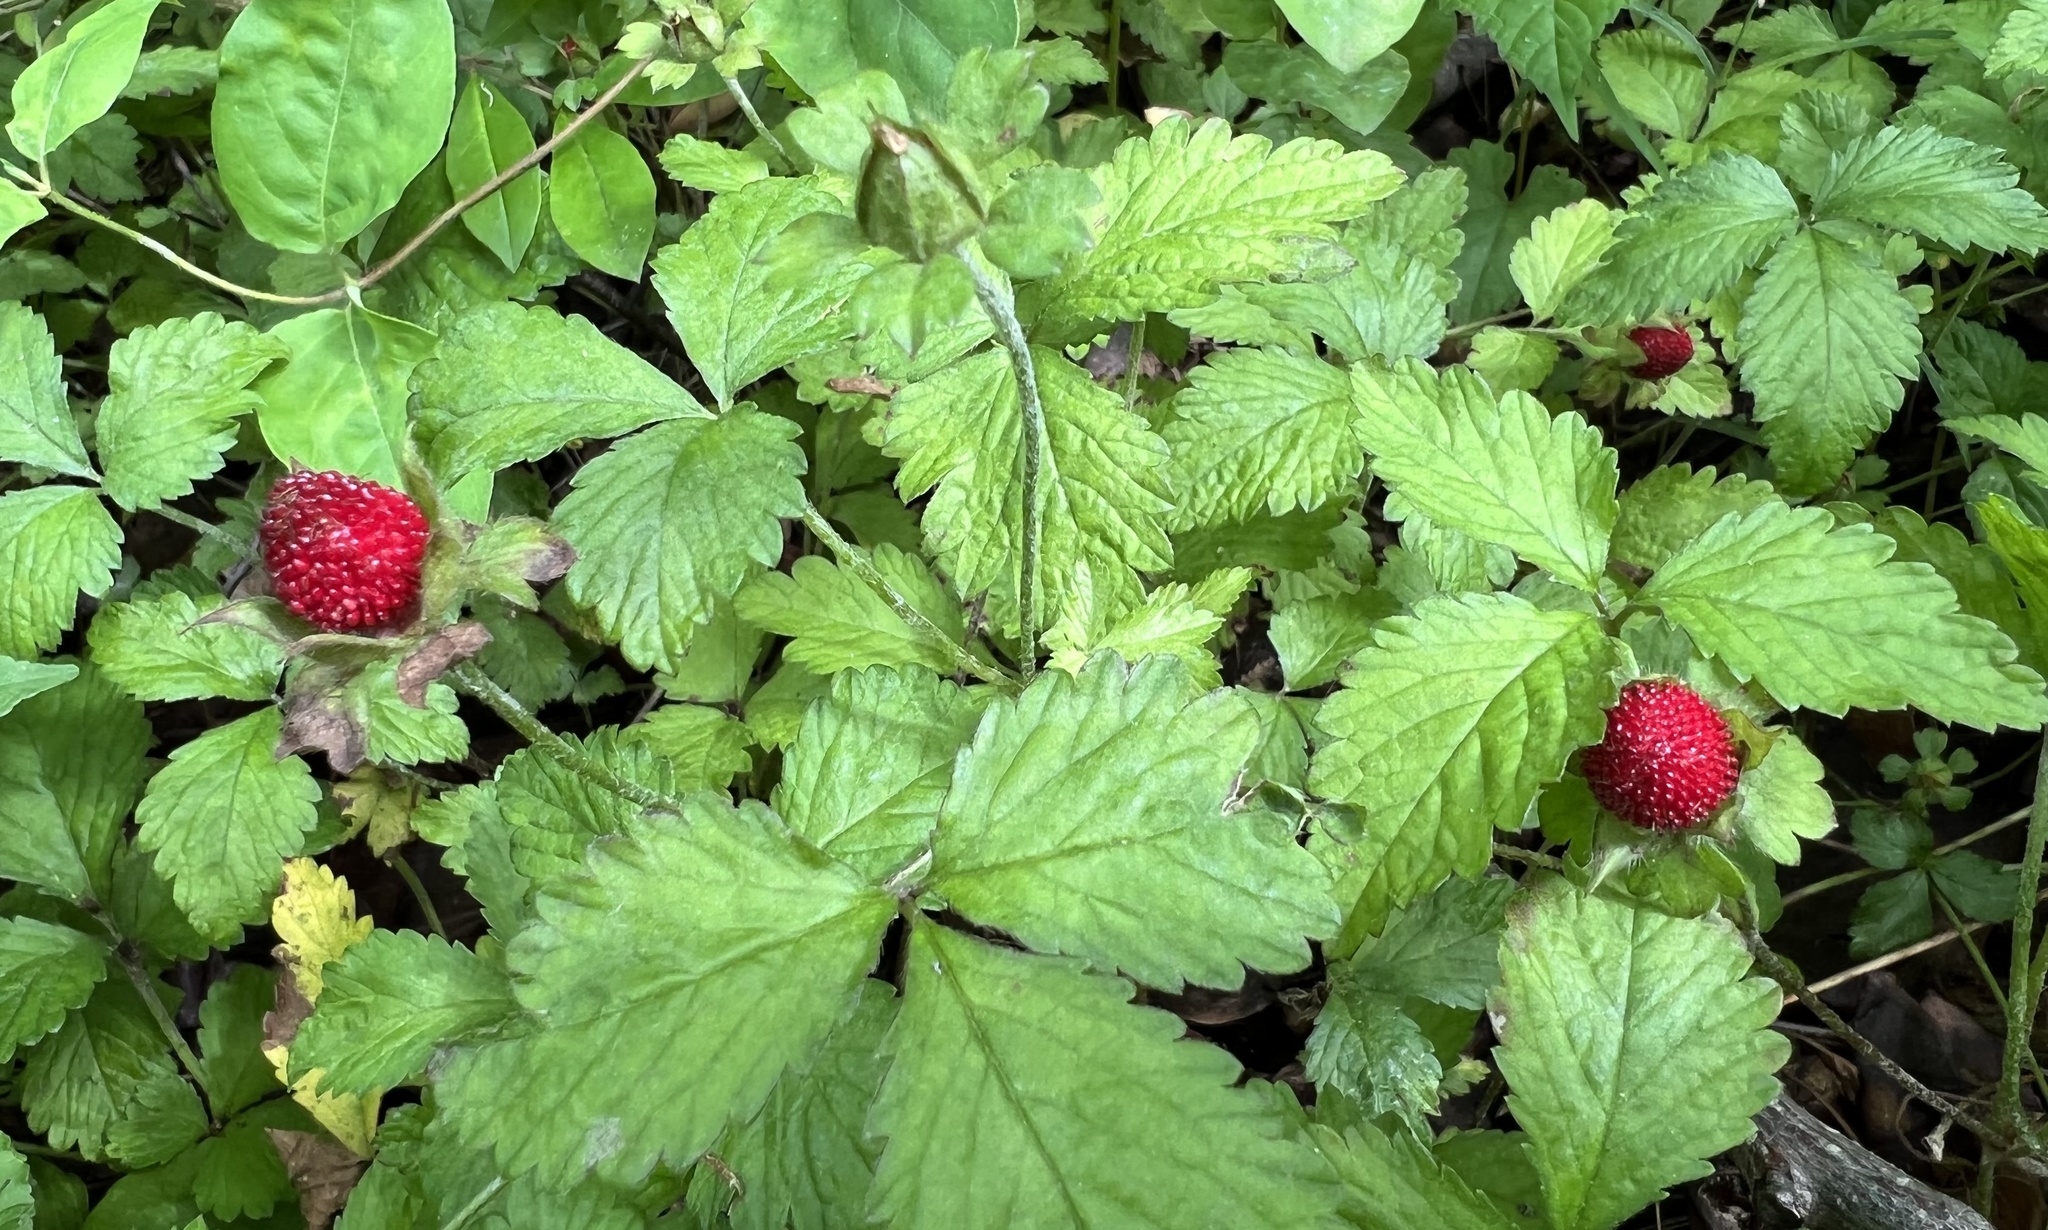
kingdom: Plantae
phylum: Tracheophyta
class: Magnoliopsida
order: Rosales
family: Rosaceae
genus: Potentilla
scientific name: Potentilla indica
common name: Yellow-flowered strawberry
